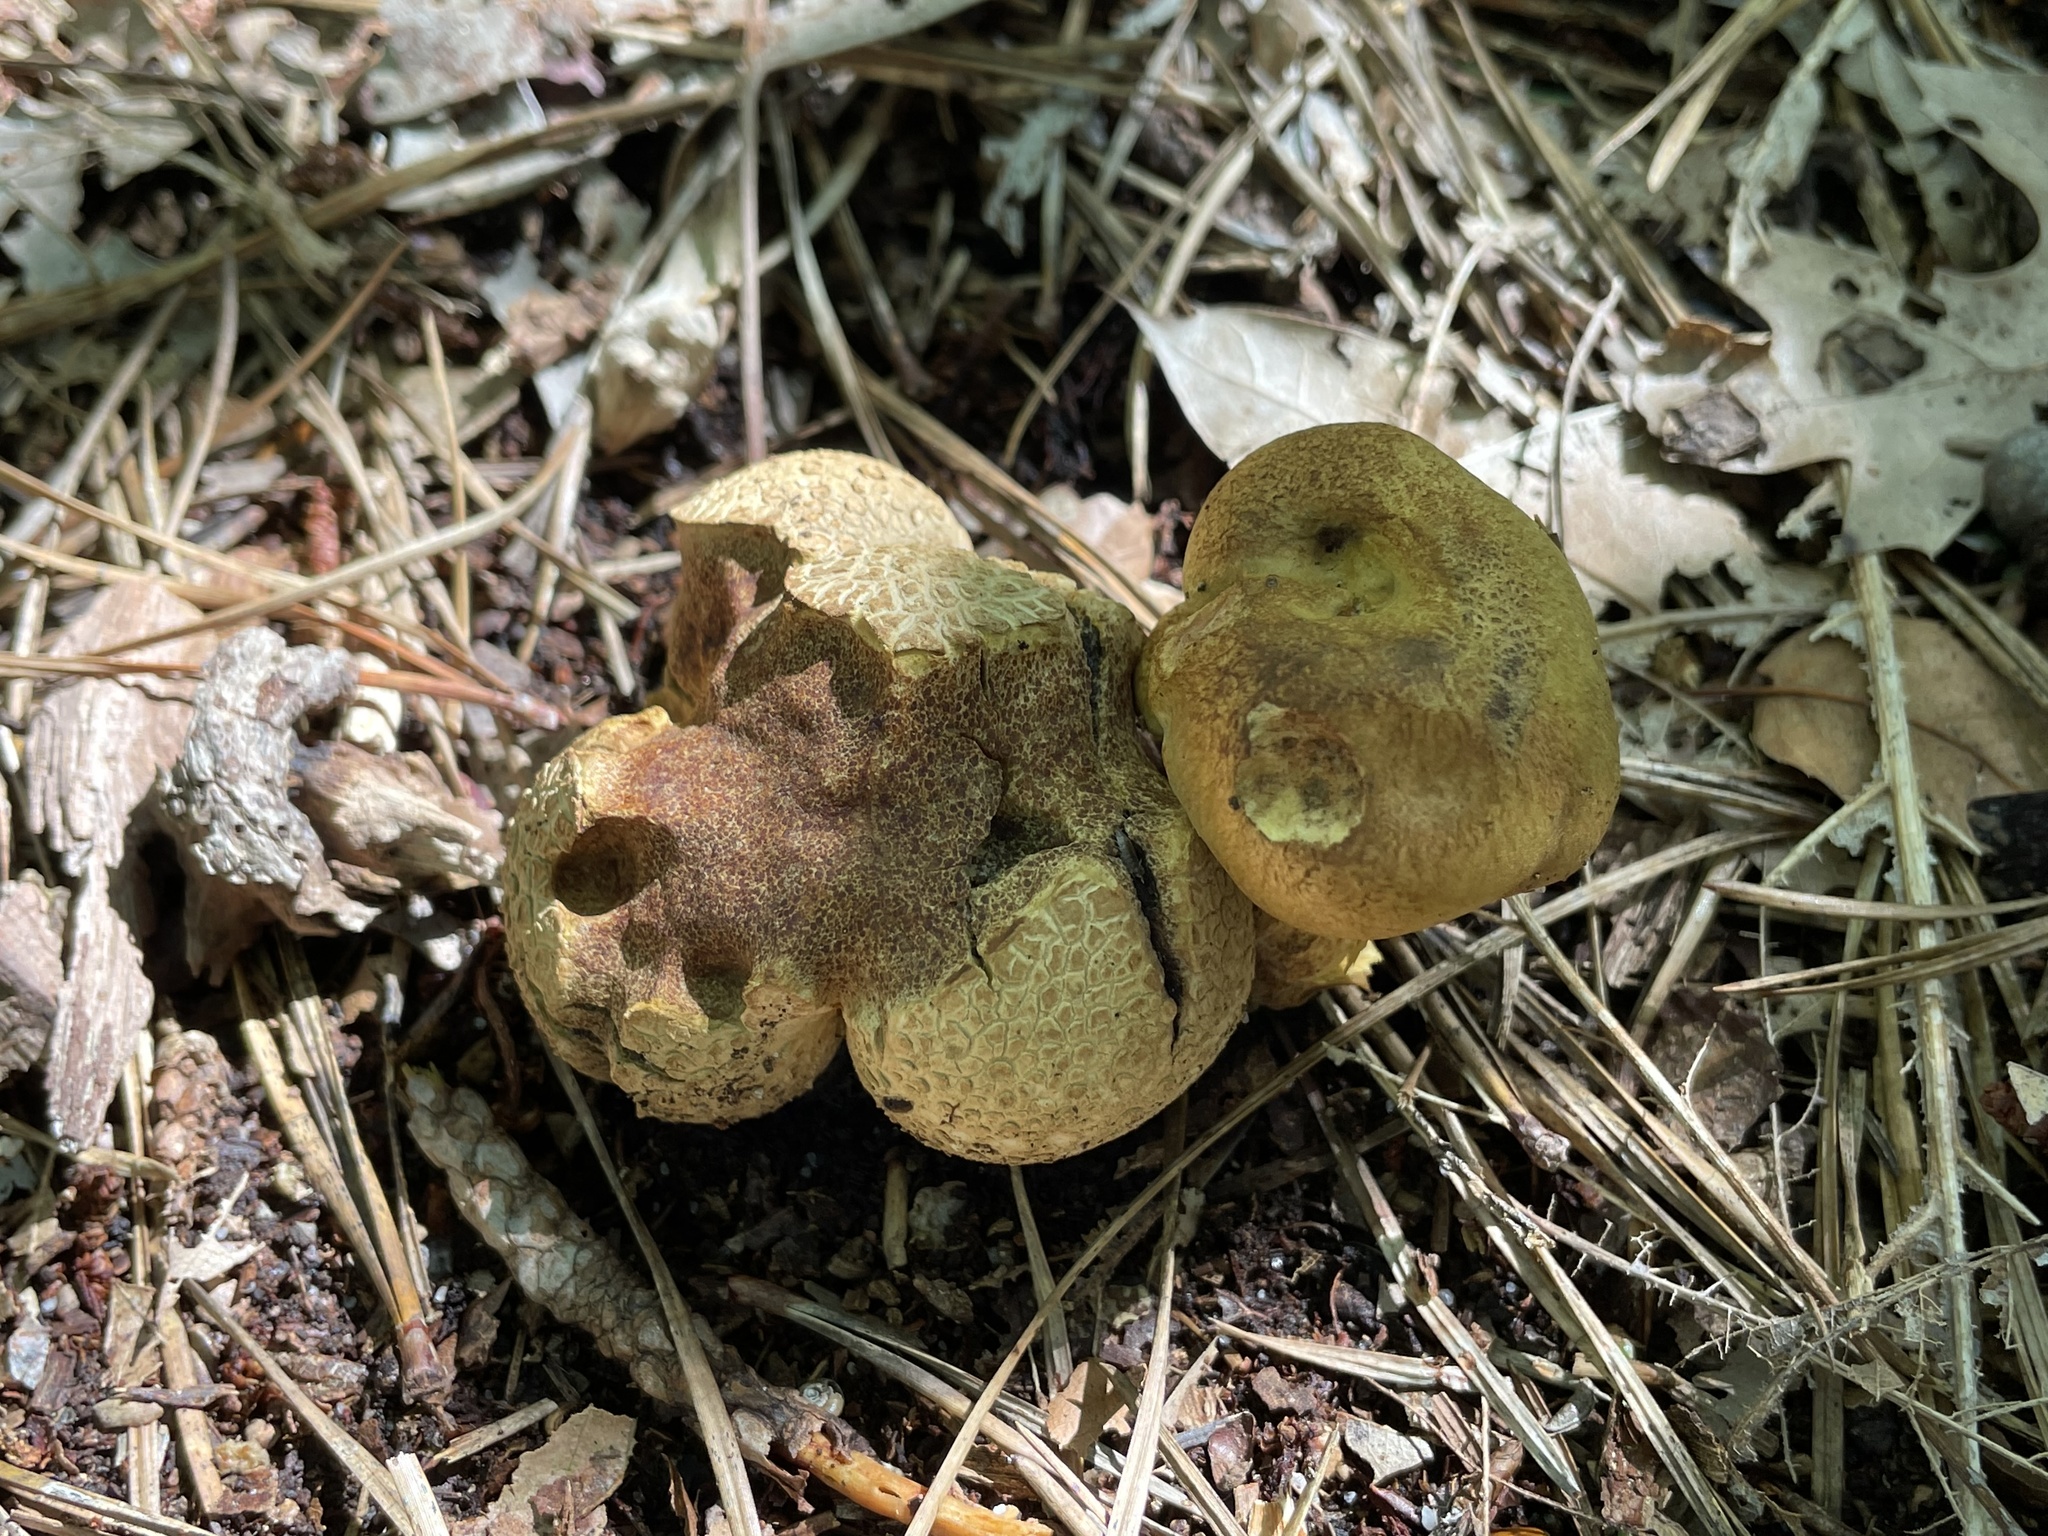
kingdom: Fungi
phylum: Basidiomycota
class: Agaricomycetes
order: Boletales
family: Boletaceae
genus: Pseudoboletus
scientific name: Pseudoboletus parasiticus
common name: Parasitic bolete
